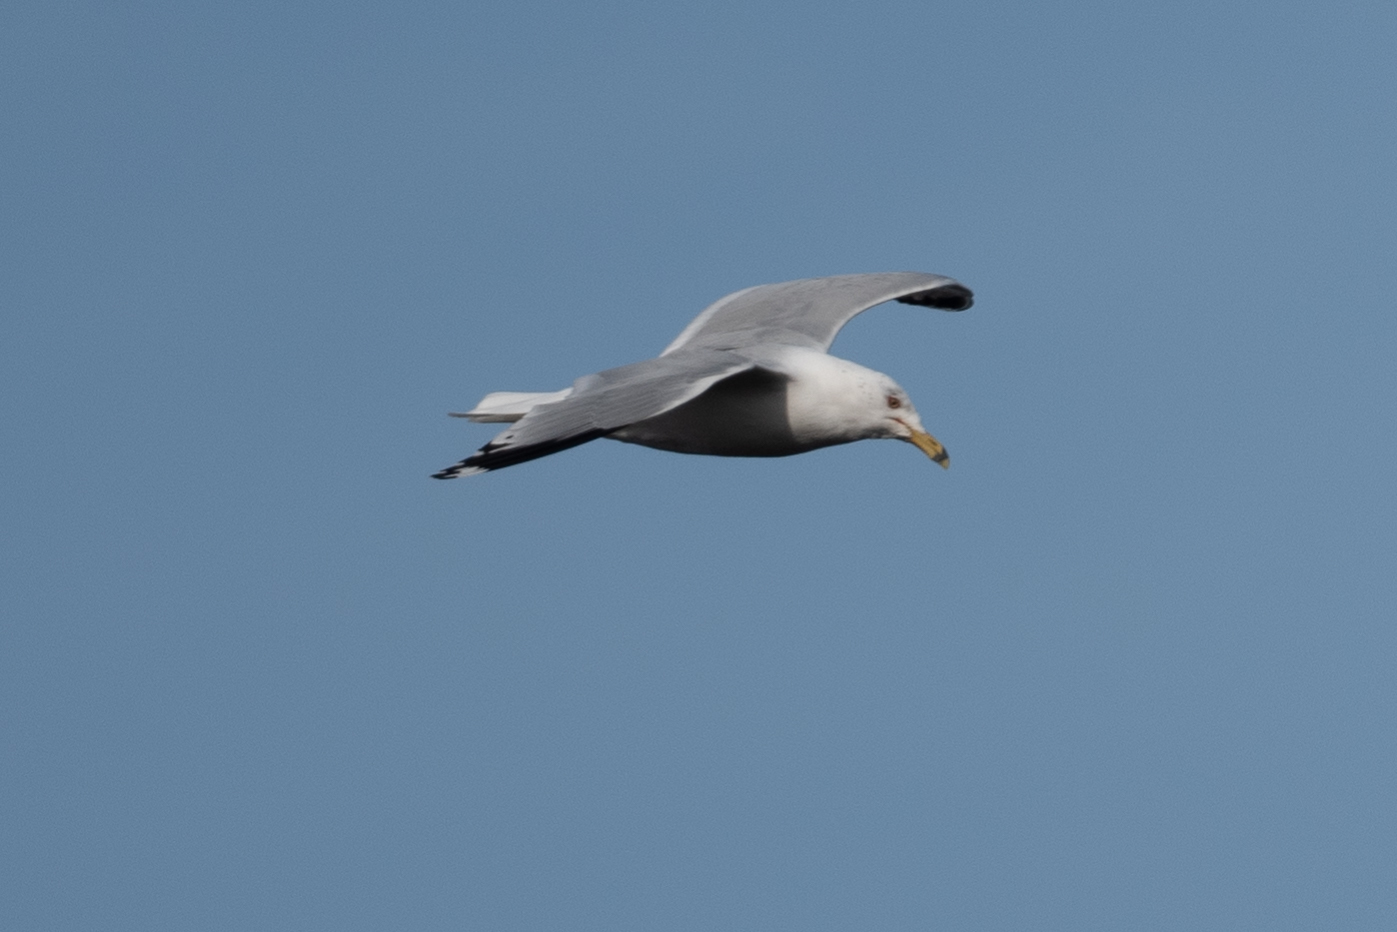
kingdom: Animalia
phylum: Chordata
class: Aves
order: Charadriiformes
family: Laridae
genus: Larus
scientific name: Larus delawarensis
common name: Ring-billed gull
